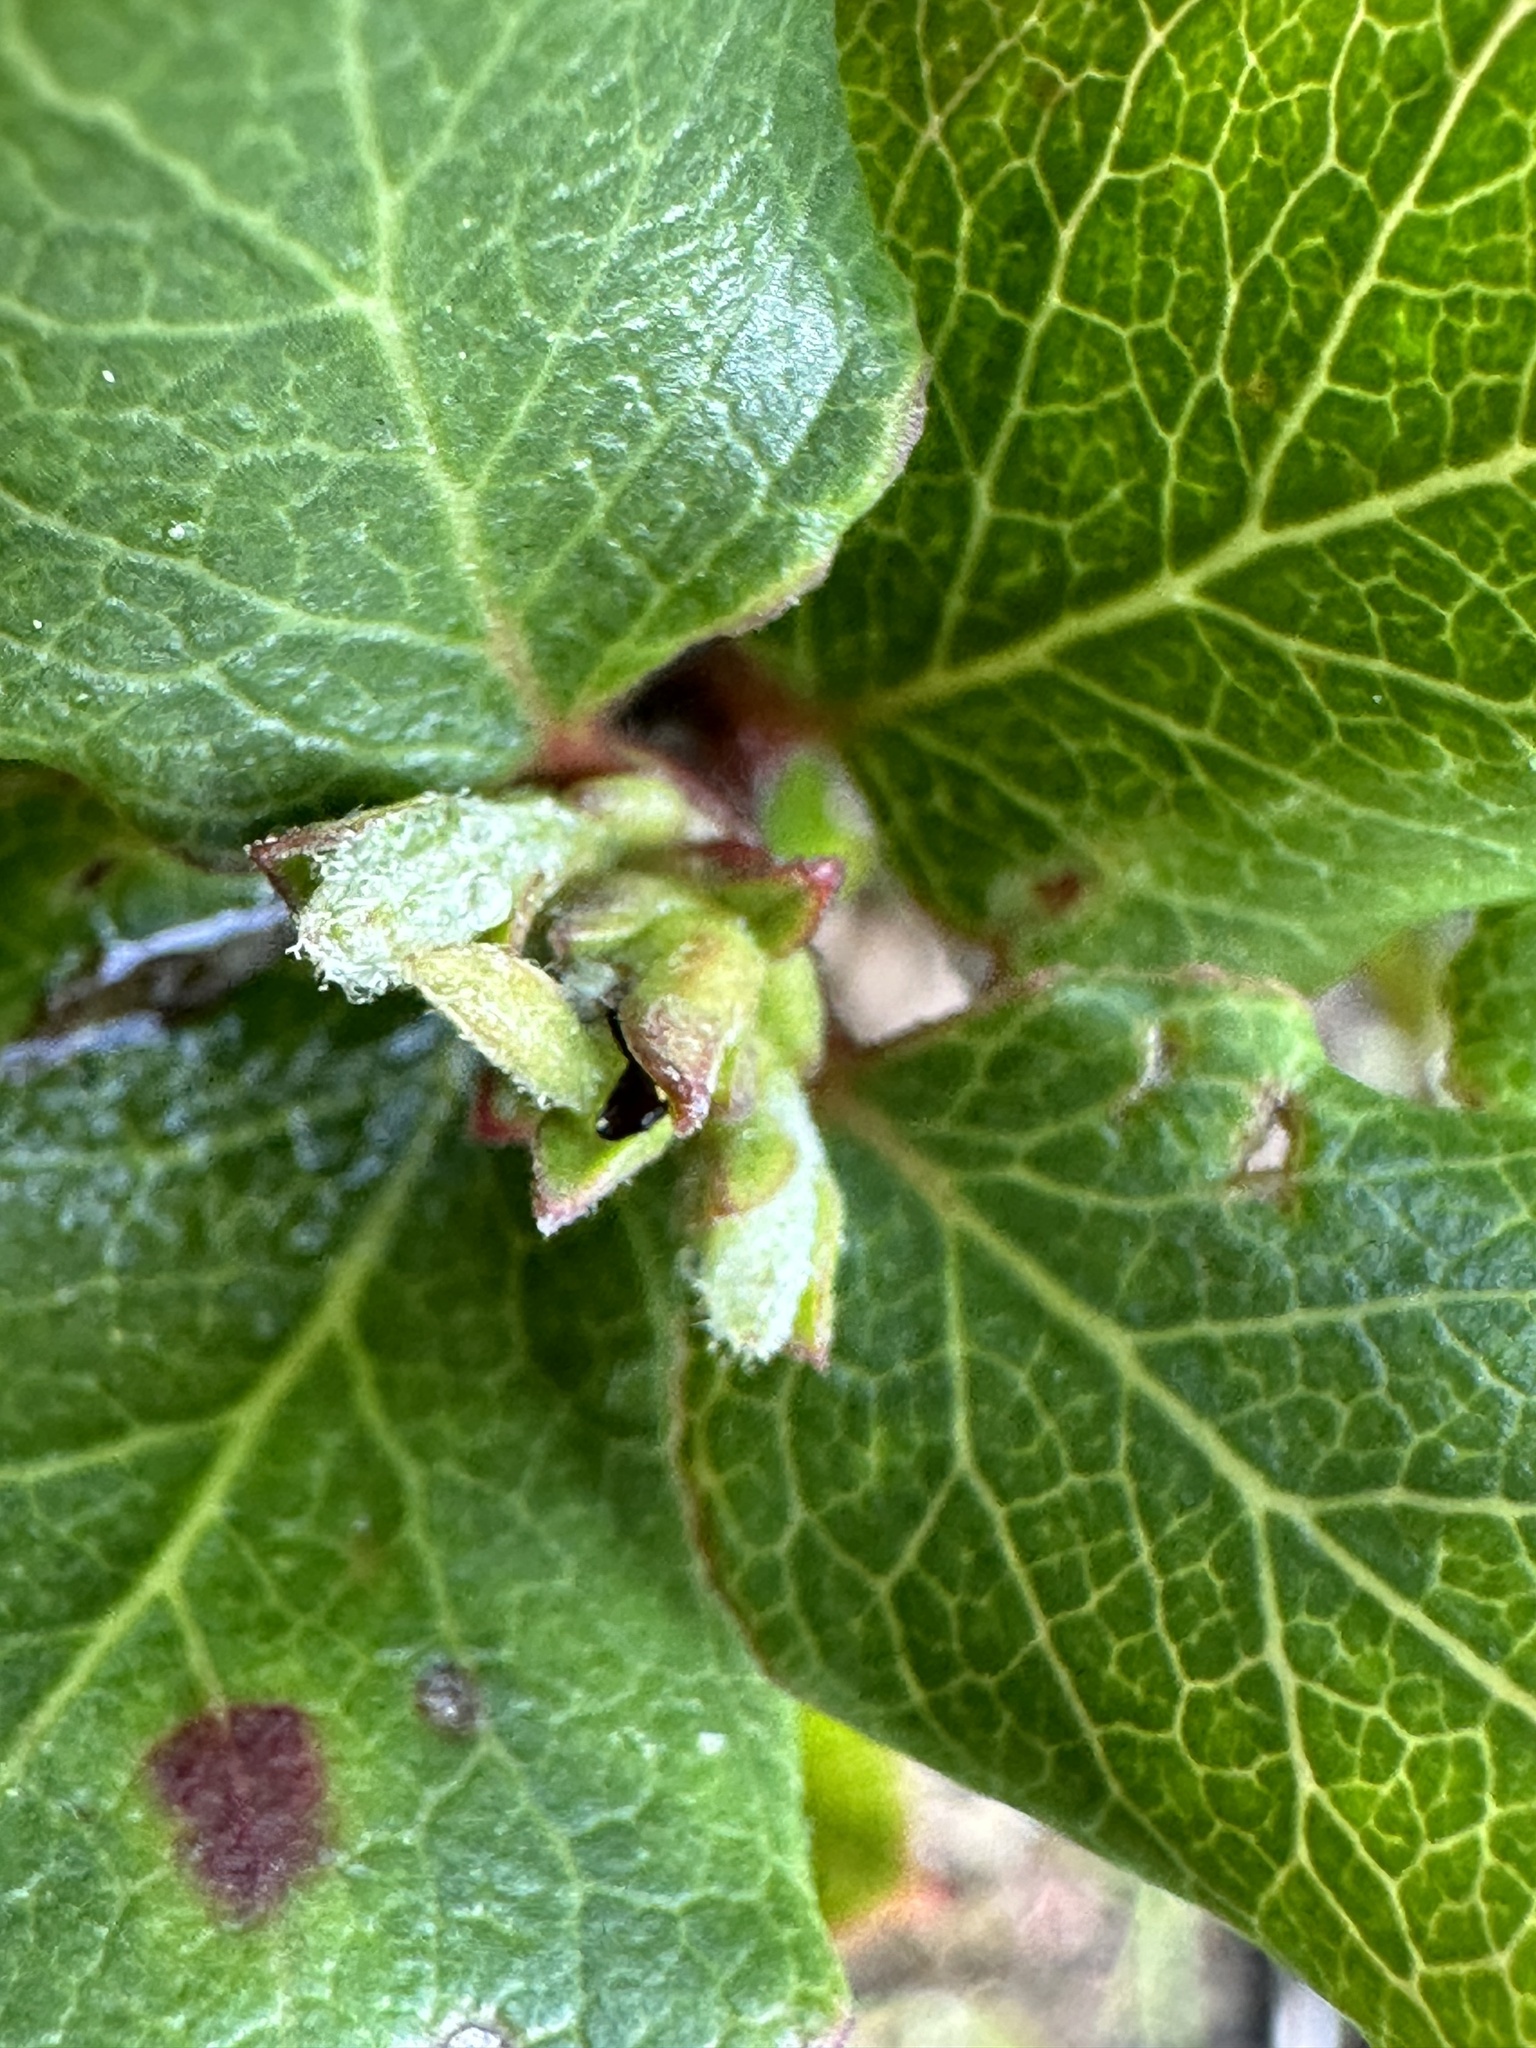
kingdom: Plantae
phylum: Tracheophyta
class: Magnoliopsida
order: Garryales
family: Garryaceae
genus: Garrya
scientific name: Garrya elliptica
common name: Silk-tassel
